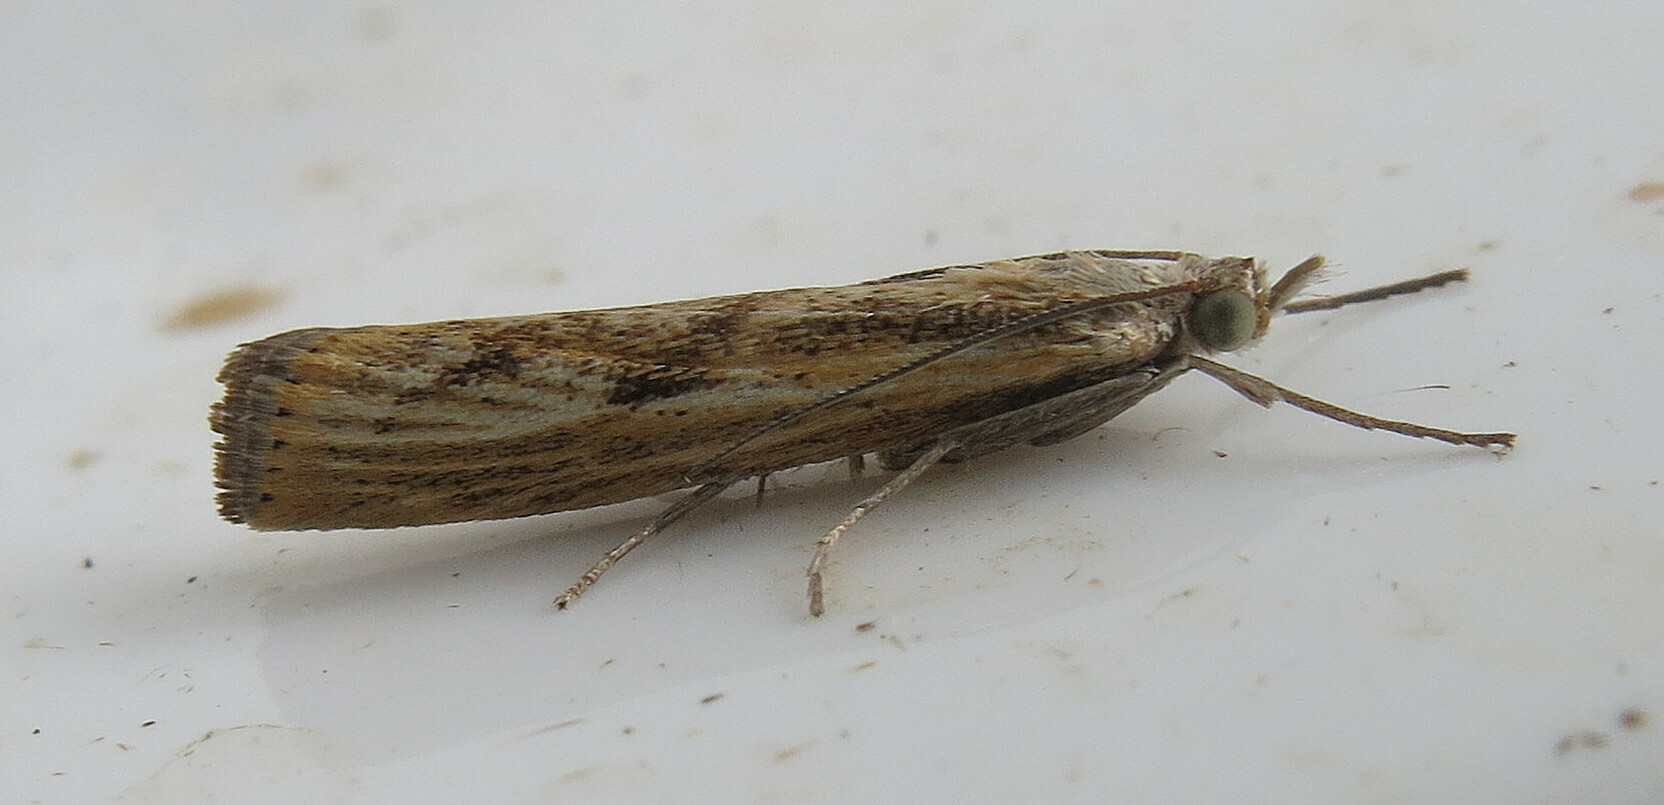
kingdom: Animalia
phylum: Arthropoda
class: Insecta
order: Lepidoptera
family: Crambidae
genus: Agriphila
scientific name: Agriphila inquinatella
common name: Barred grass-veneer
